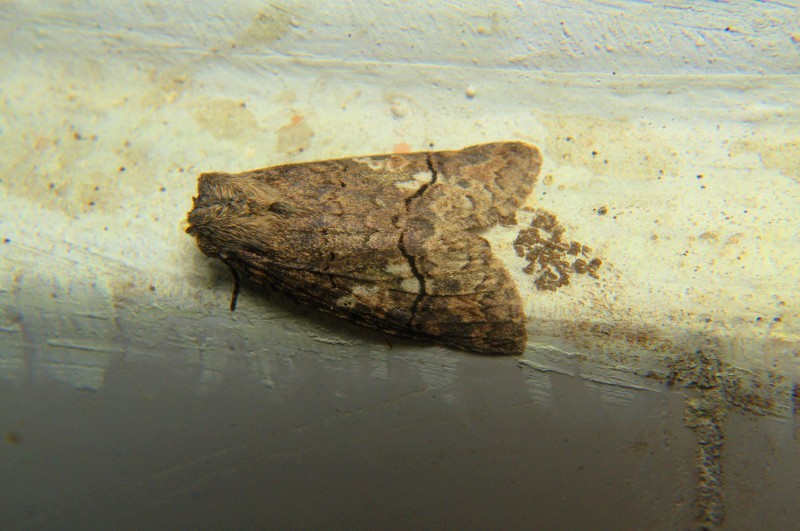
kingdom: Animalia
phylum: Arthropoda
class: Insecta
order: Lepidoptera
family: Notodontidae
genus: Antiphalera
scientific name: Antiphalera bilineata
